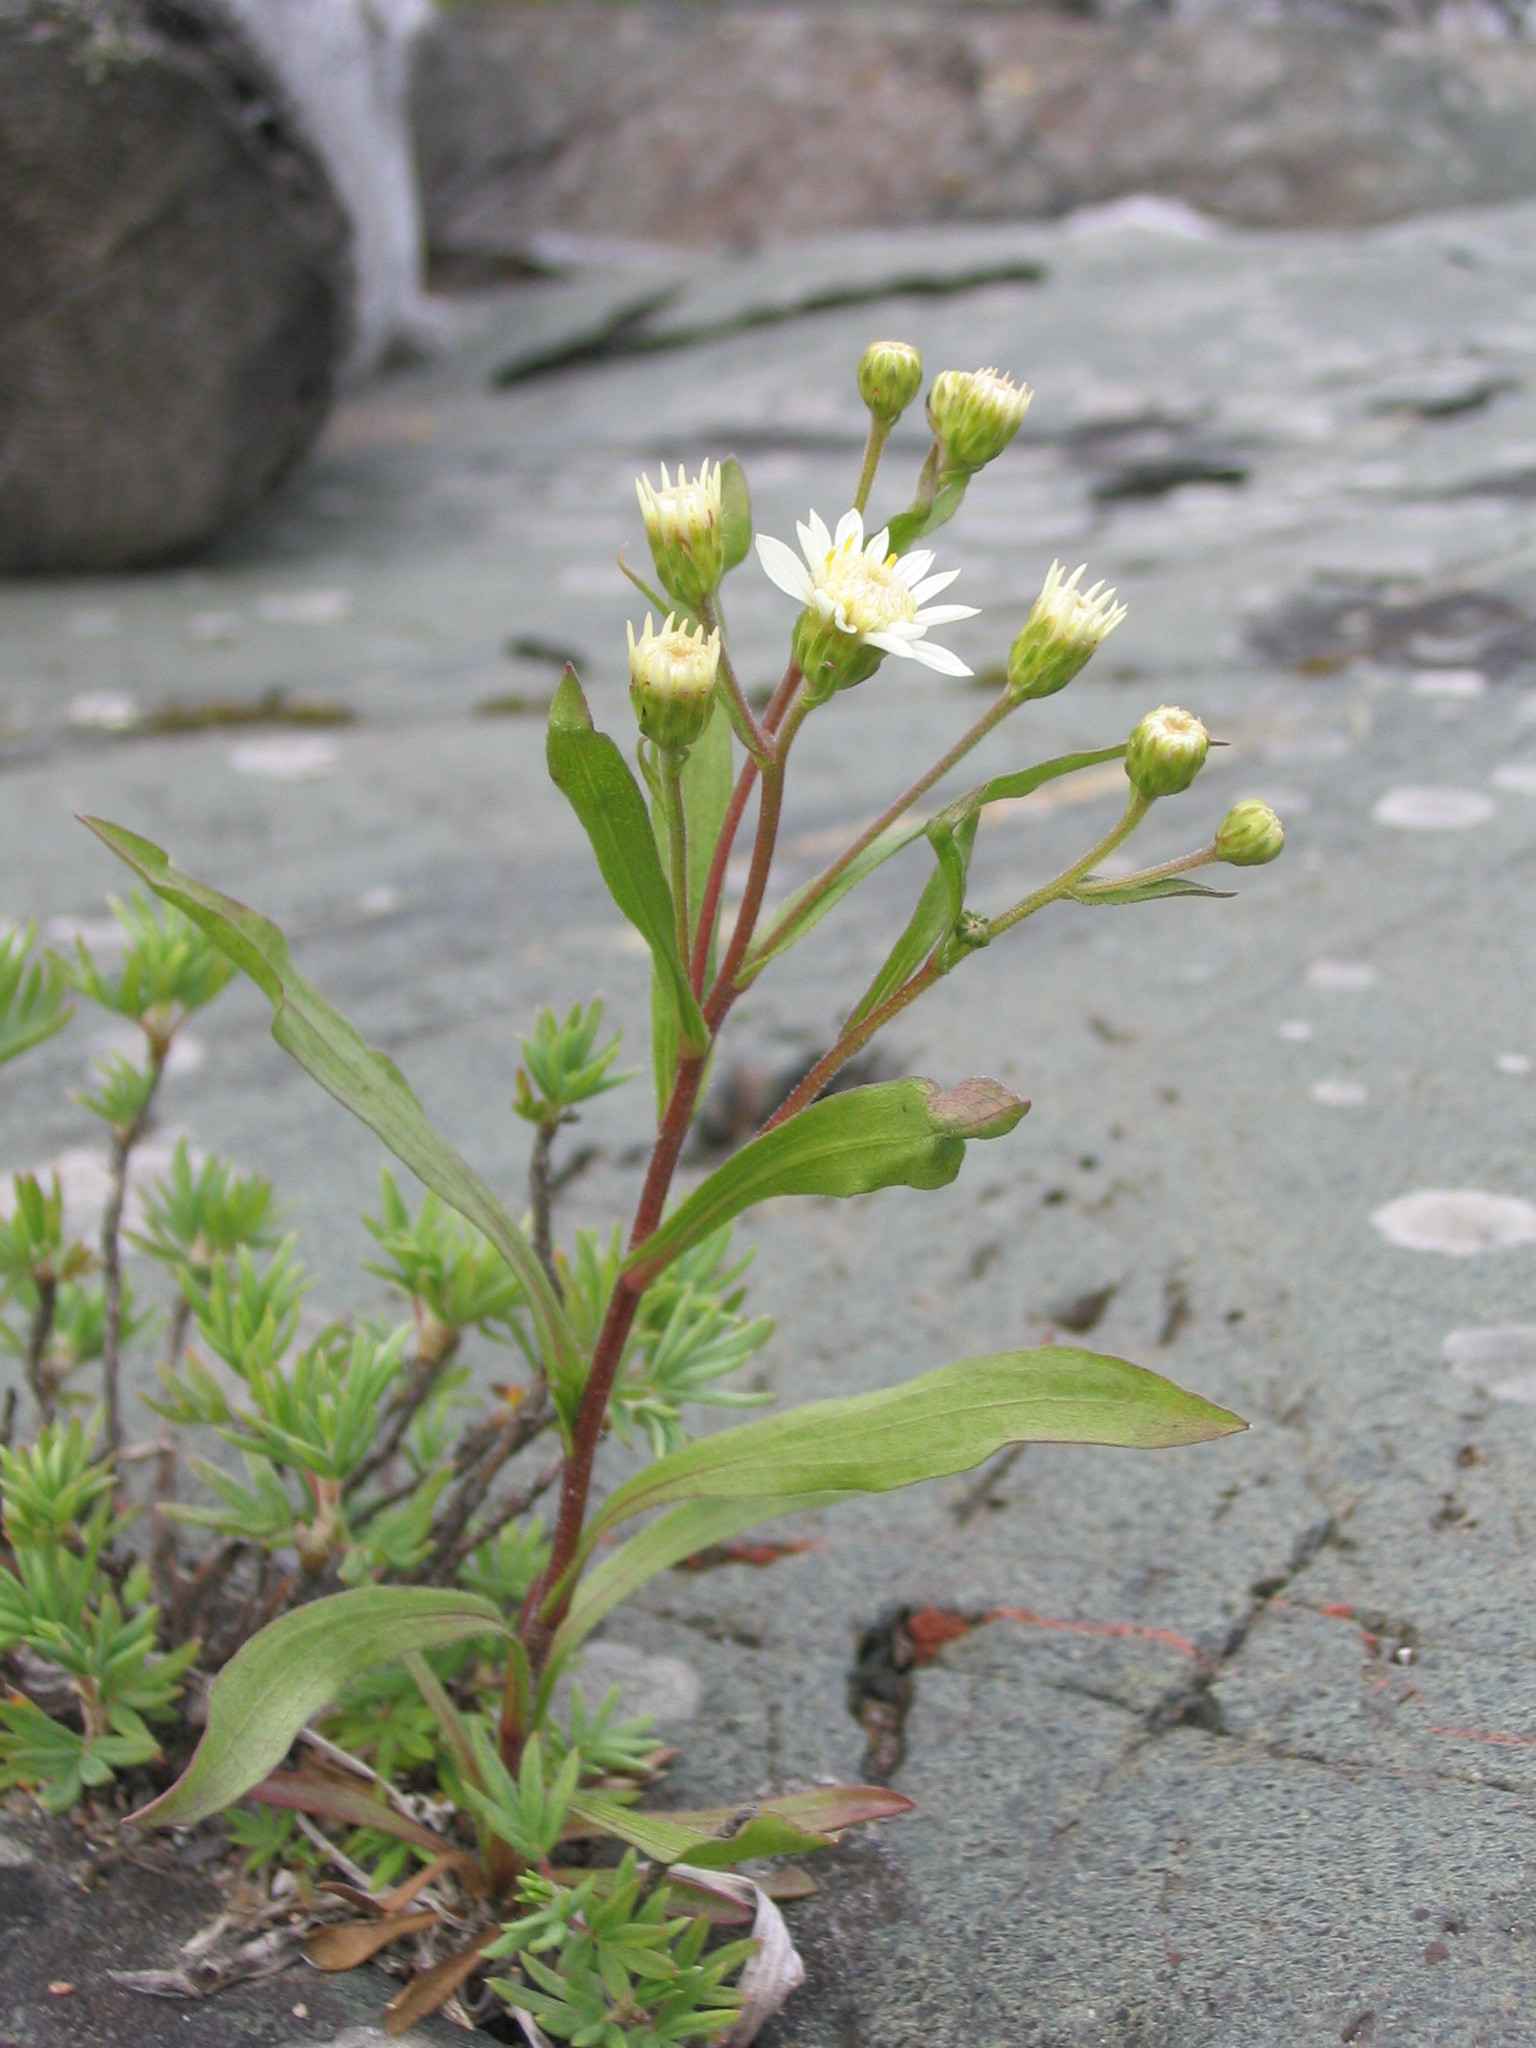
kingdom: Plantae
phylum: Tracheophyta
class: Magnoliopsida
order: Asterales
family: Asteraceae
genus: Solidago
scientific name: Solidago ptarmicoides
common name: White flat-top goldenrod
